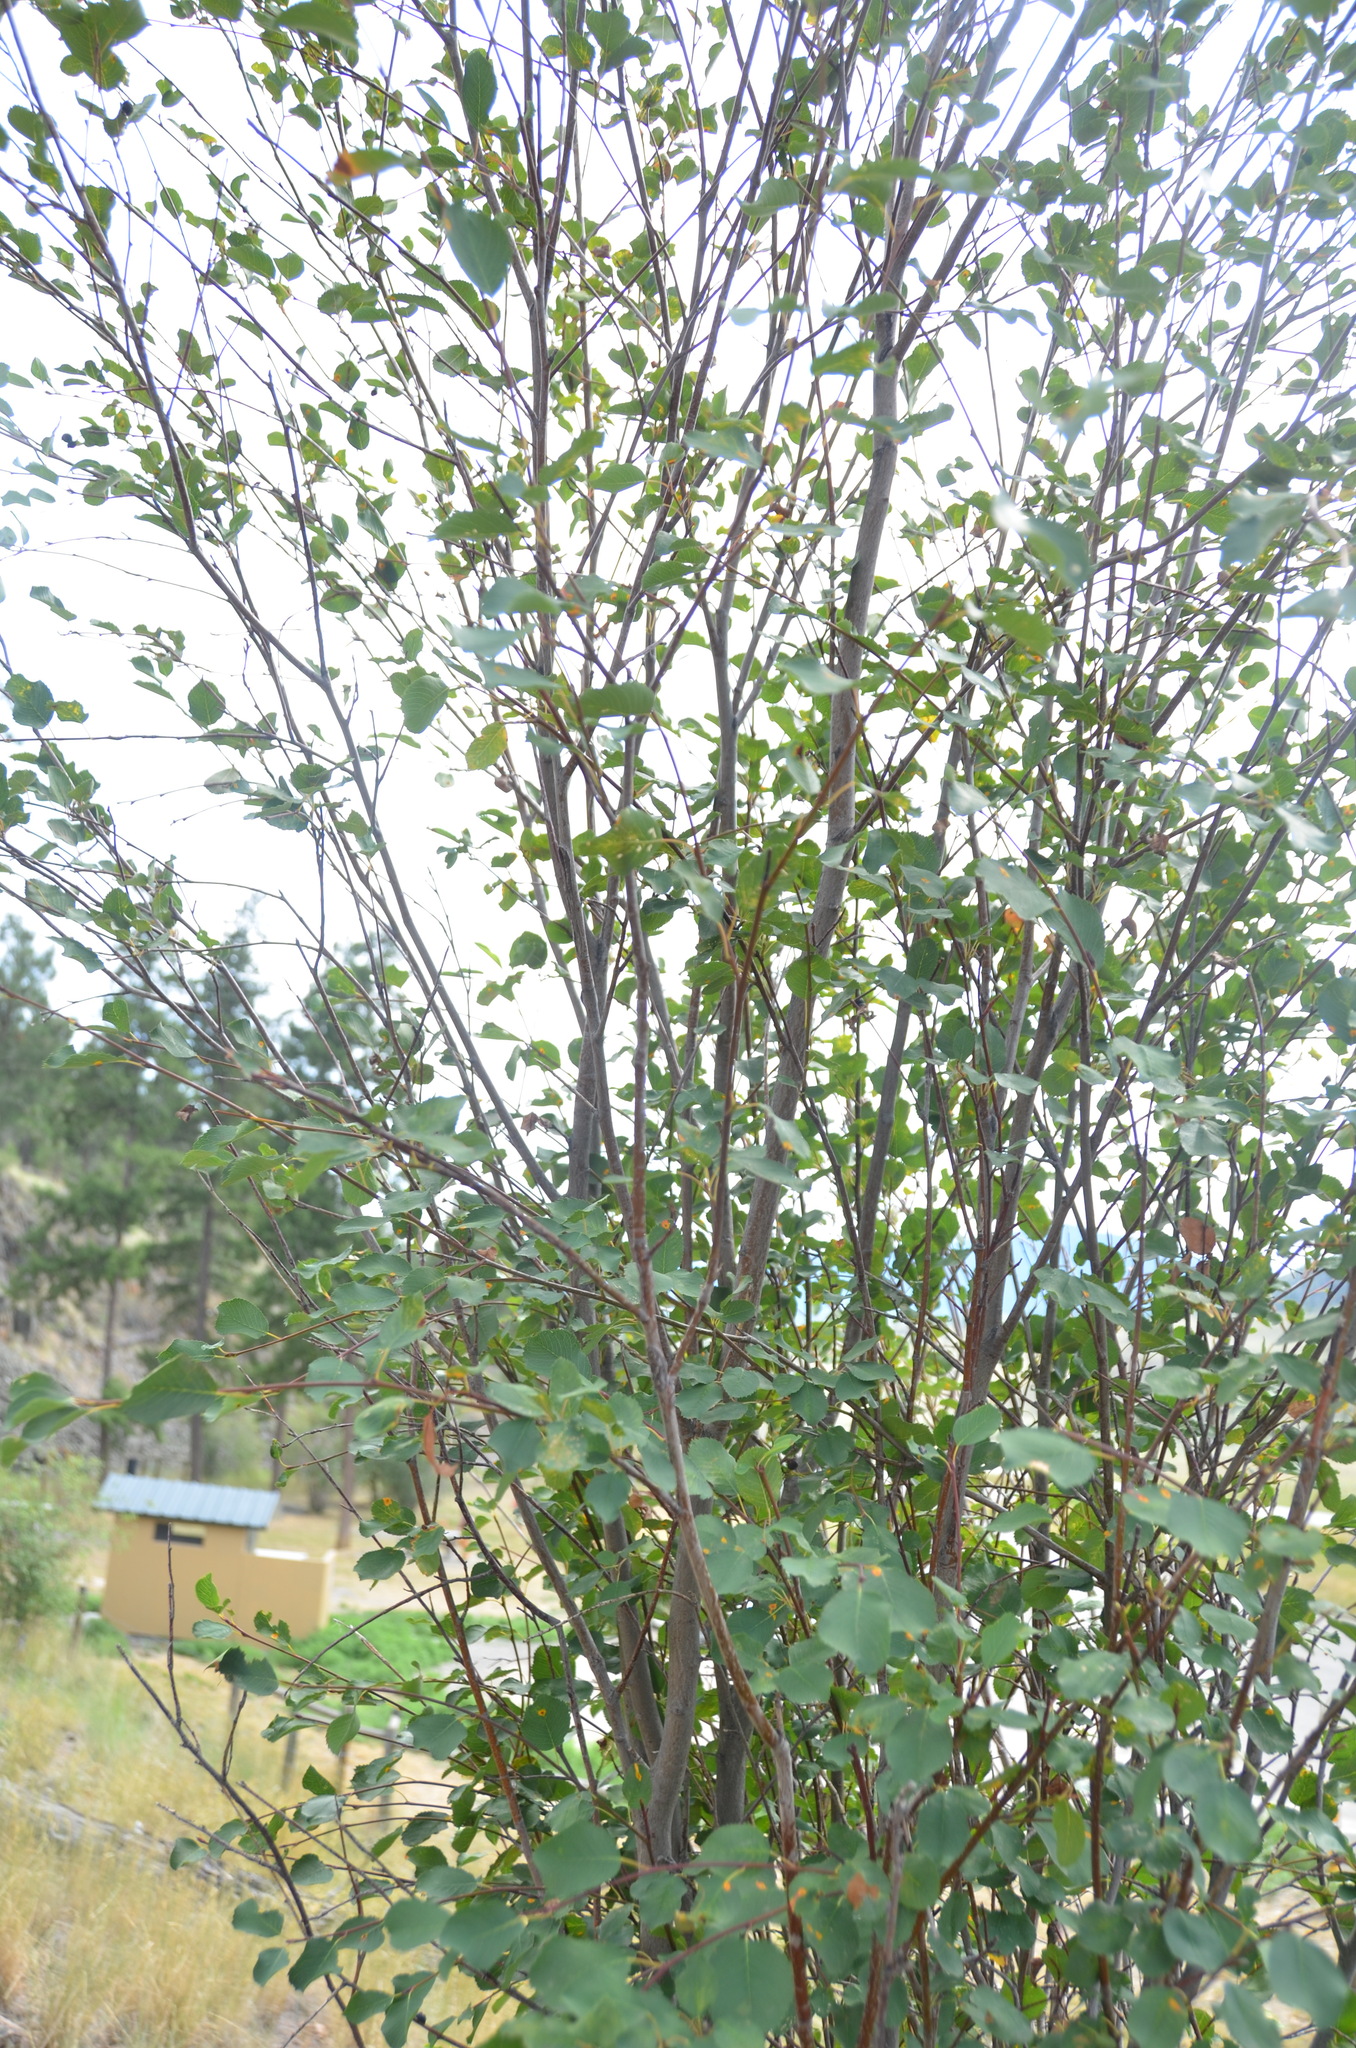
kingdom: Plantae
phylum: Tracheophyta
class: Magnoliopsida
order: Rosales
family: Rosaceae
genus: Amelanchier
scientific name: Amelanchier alnifolia
